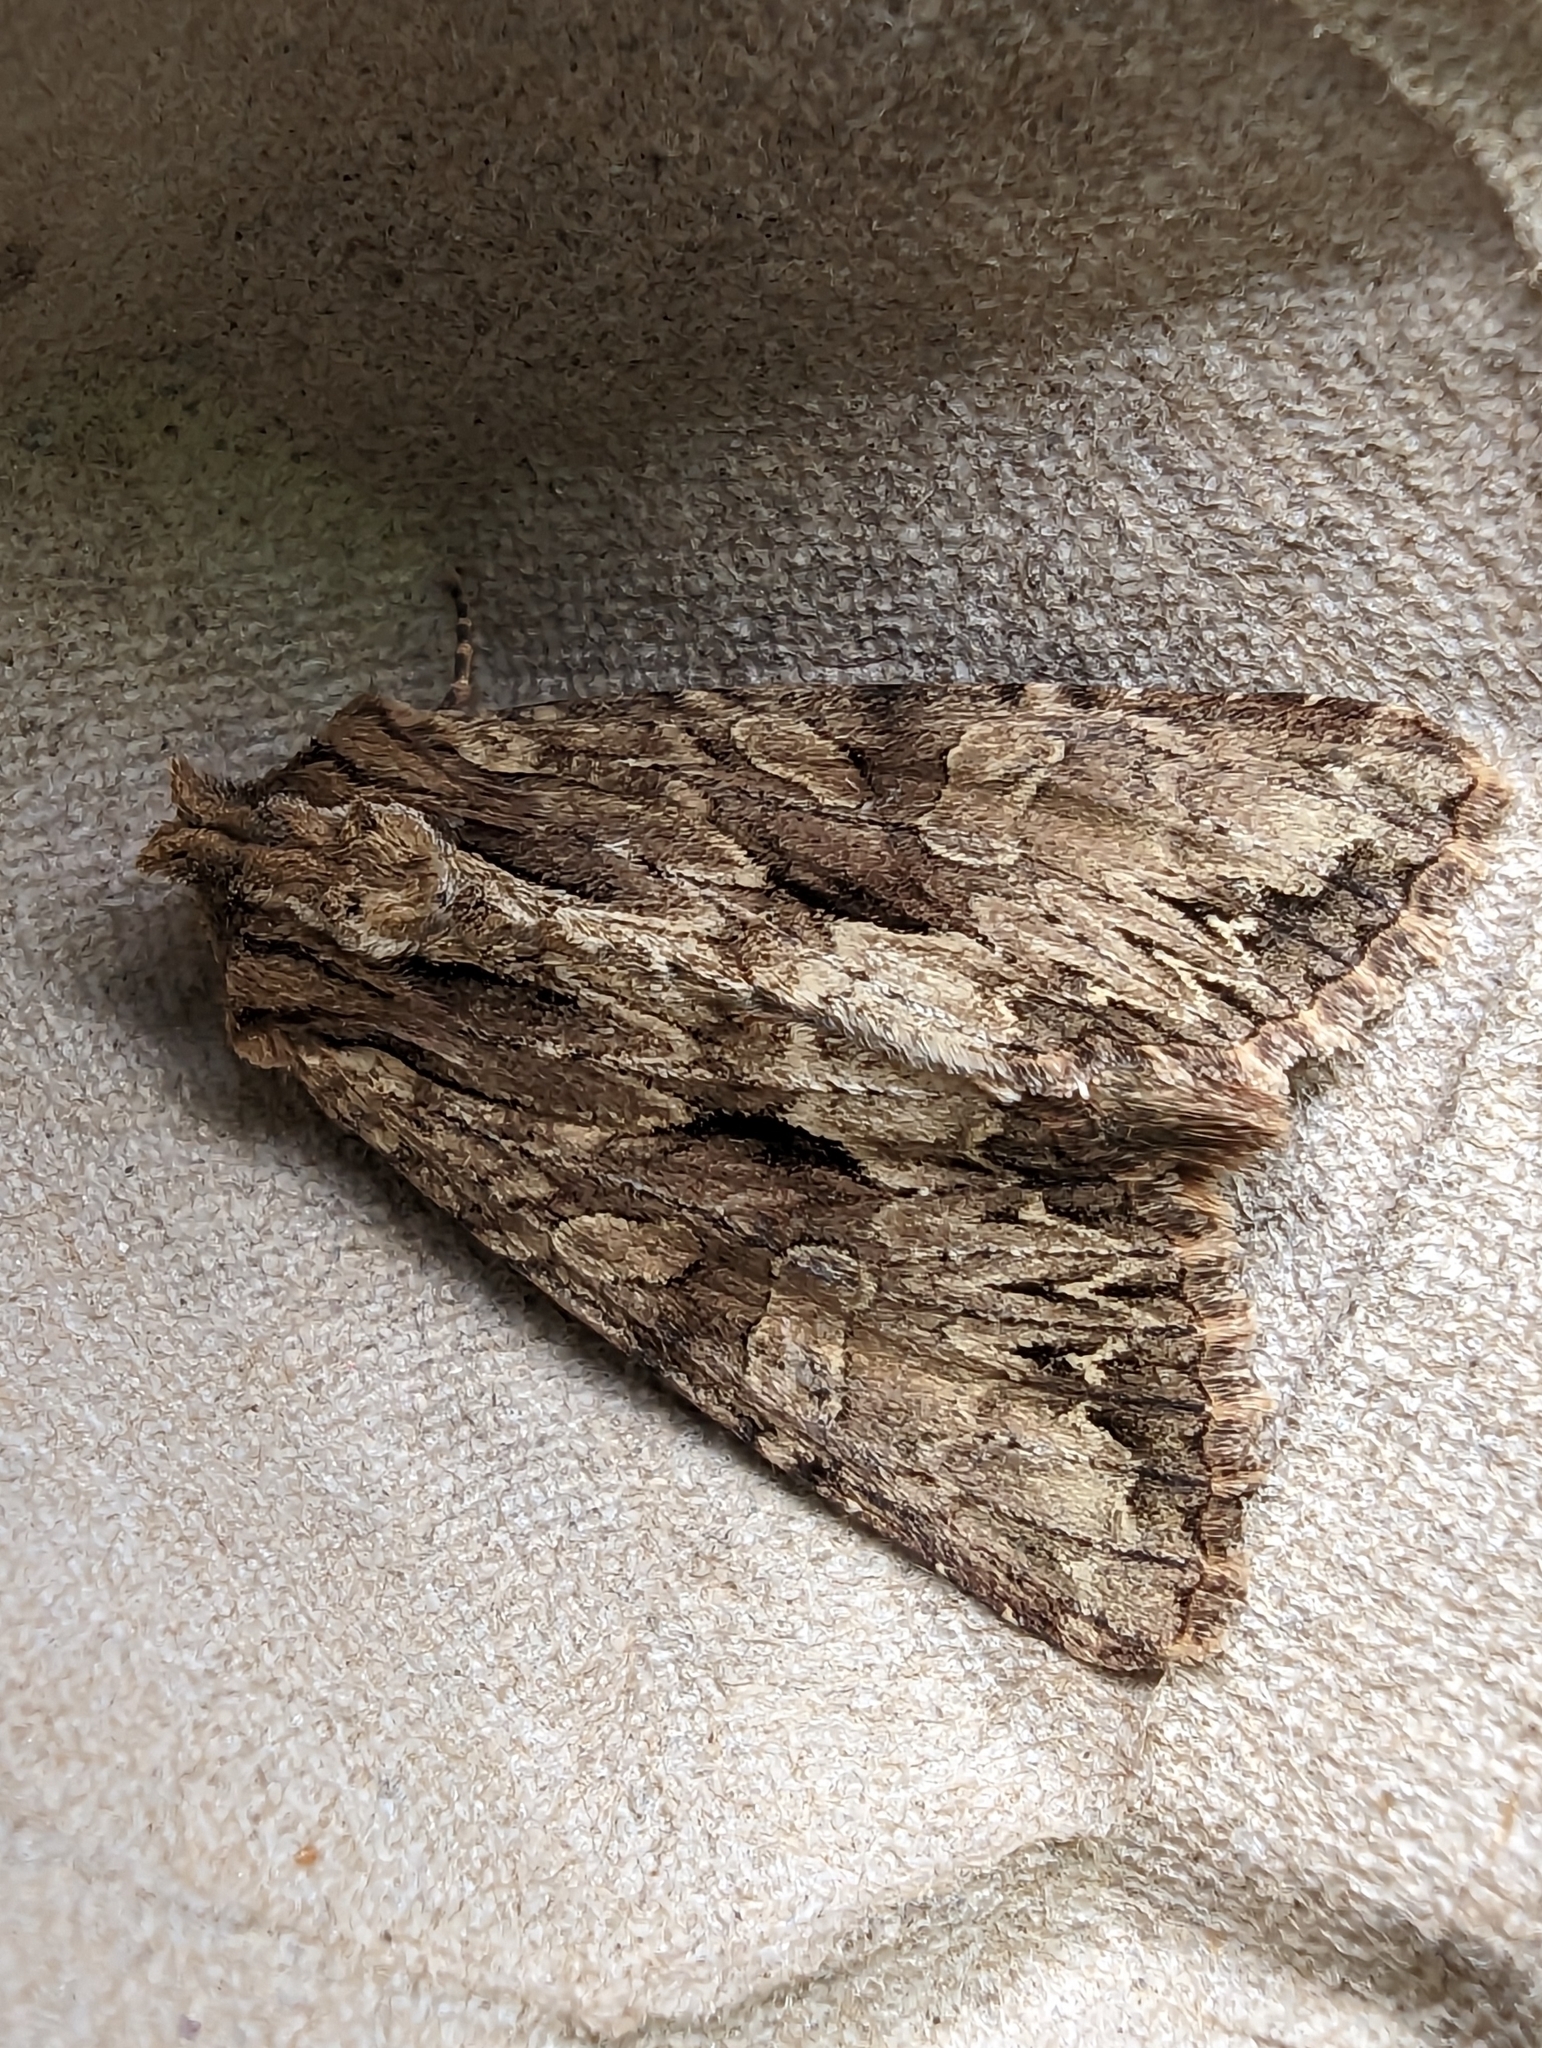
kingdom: Animalia
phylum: Arthropoda
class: Insecta
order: Lepidoptera
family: Noctuidae
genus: Apamea
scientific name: Apamea monoglypha
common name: Dark arches
